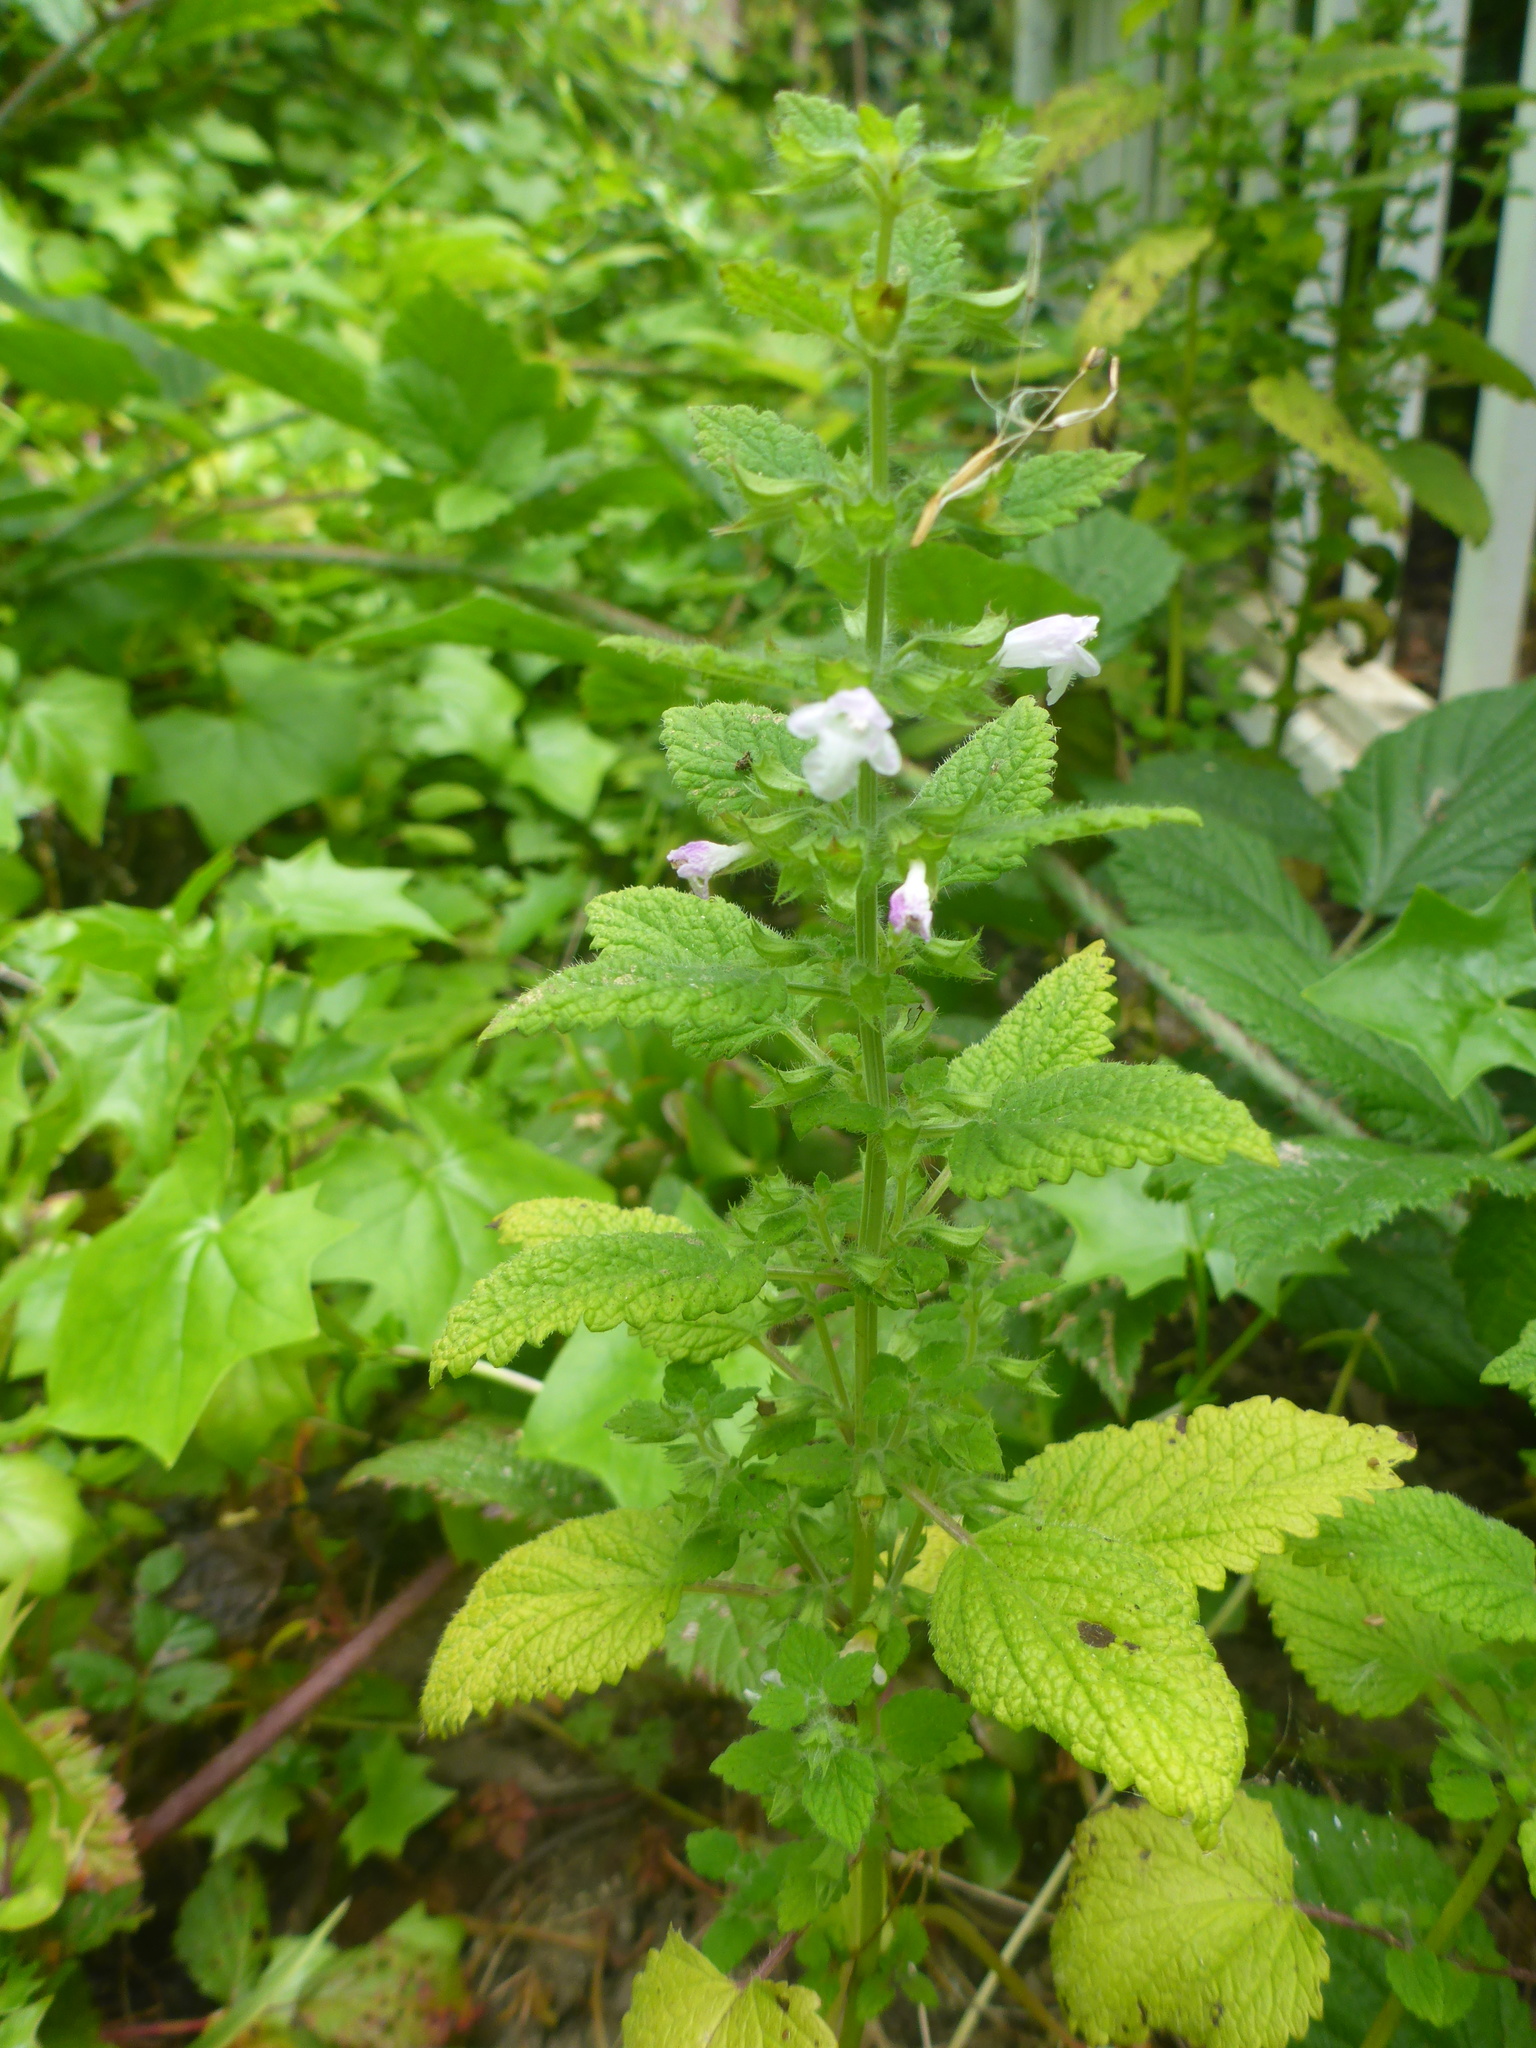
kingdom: Plantae
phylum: Tracheophyta
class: Magnoliopsida
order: Lamiales
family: Lamiaceae
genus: Melissa
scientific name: Melissa officinalis
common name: Balm
